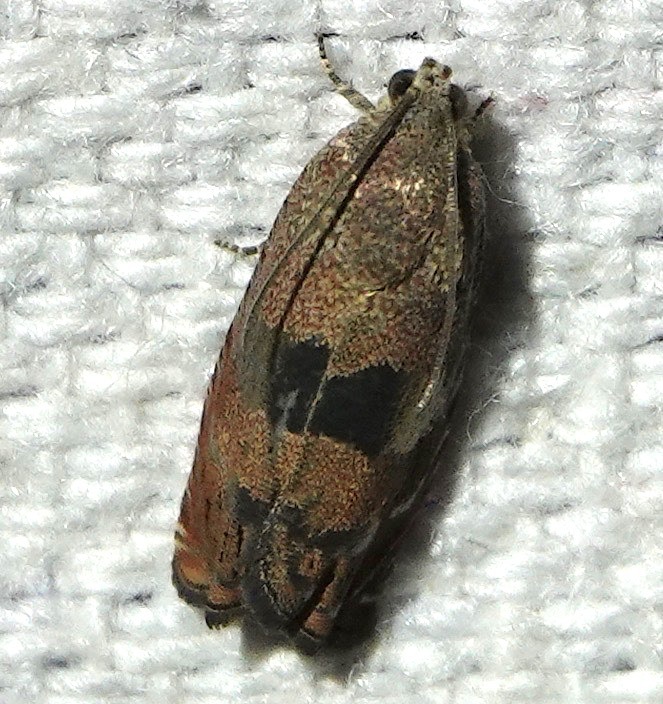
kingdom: Animalia
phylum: Arthropoda
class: Insecta
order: Lepidoptera
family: Tortricidae
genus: Cydia
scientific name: Cydia latiferreana
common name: Filbertworm moth
